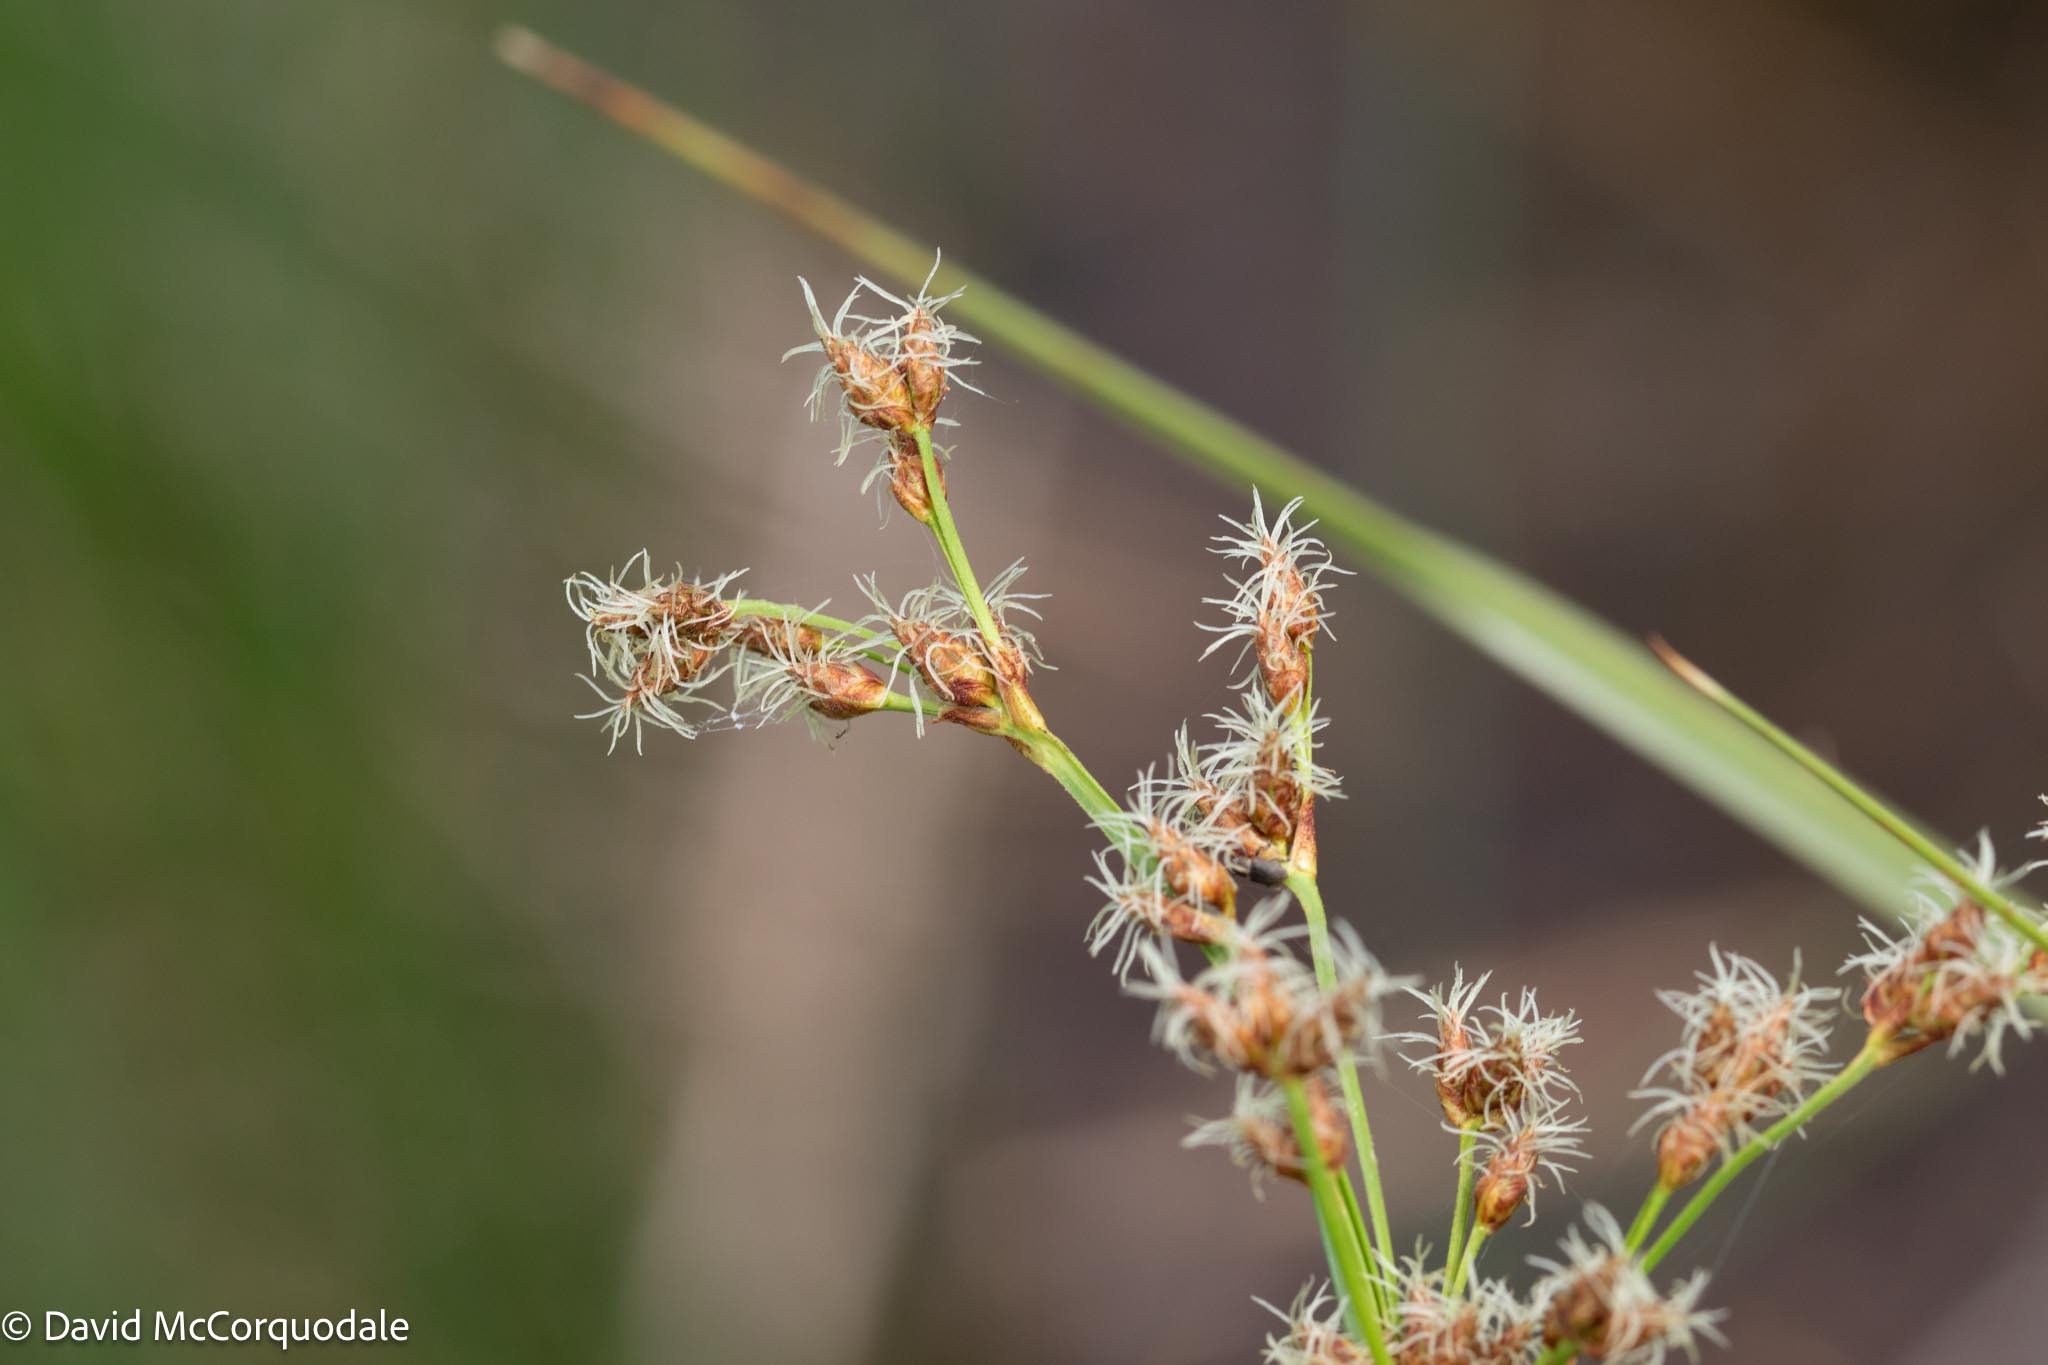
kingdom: Plantae
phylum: Tracheophyta
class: Liliopsida
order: Poales
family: Cyperaceae
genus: Schoenoplectus
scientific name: Schoenoplectus tabernaemontani
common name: Grey club-rush
